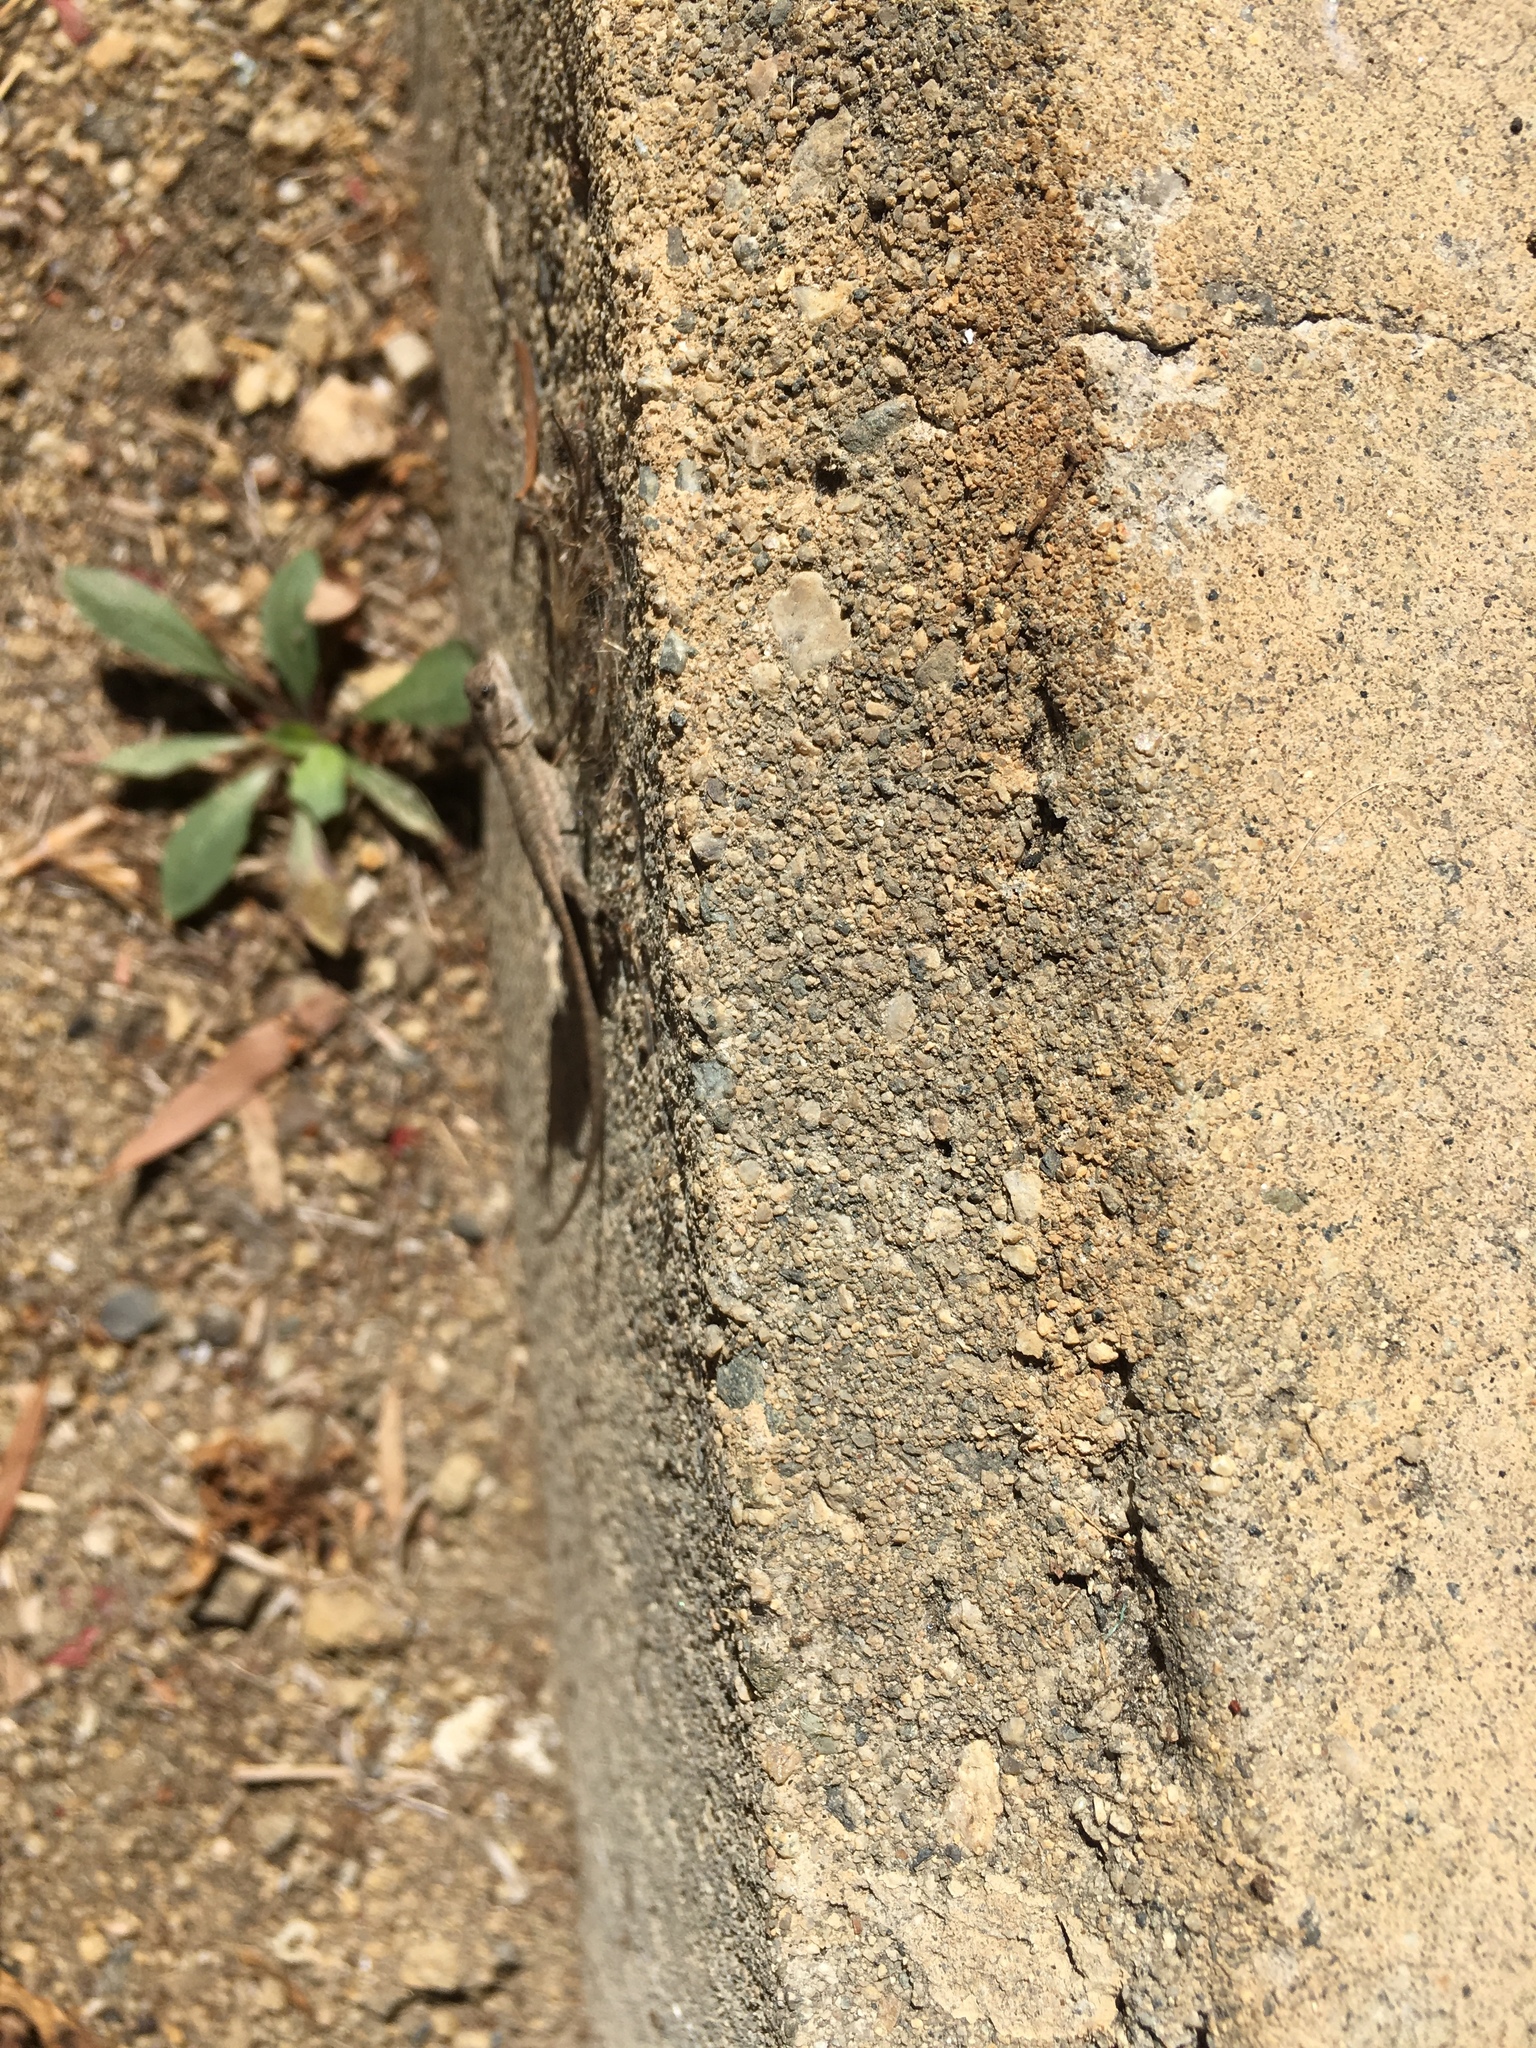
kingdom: Animalia
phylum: Chordata
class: Squamata
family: Phrynosomatidae
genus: Sceloporus
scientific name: Sceloporus occidentalis
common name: Western fence lizard
